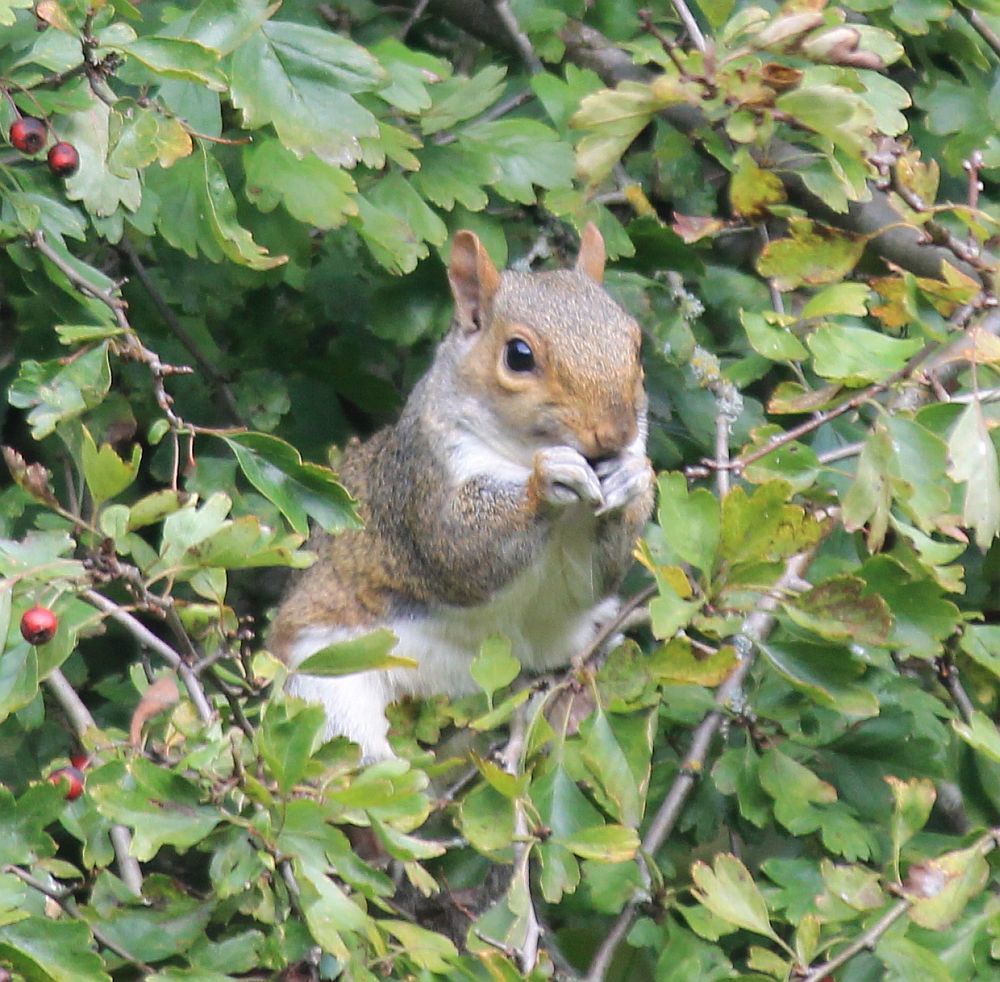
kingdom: Animalia
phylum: Chordata
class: Mammalia
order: Rodentia
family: Sciuridae
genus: Sciurus
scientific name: Sciurus carolinensis
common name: Eastern gray squirrel
